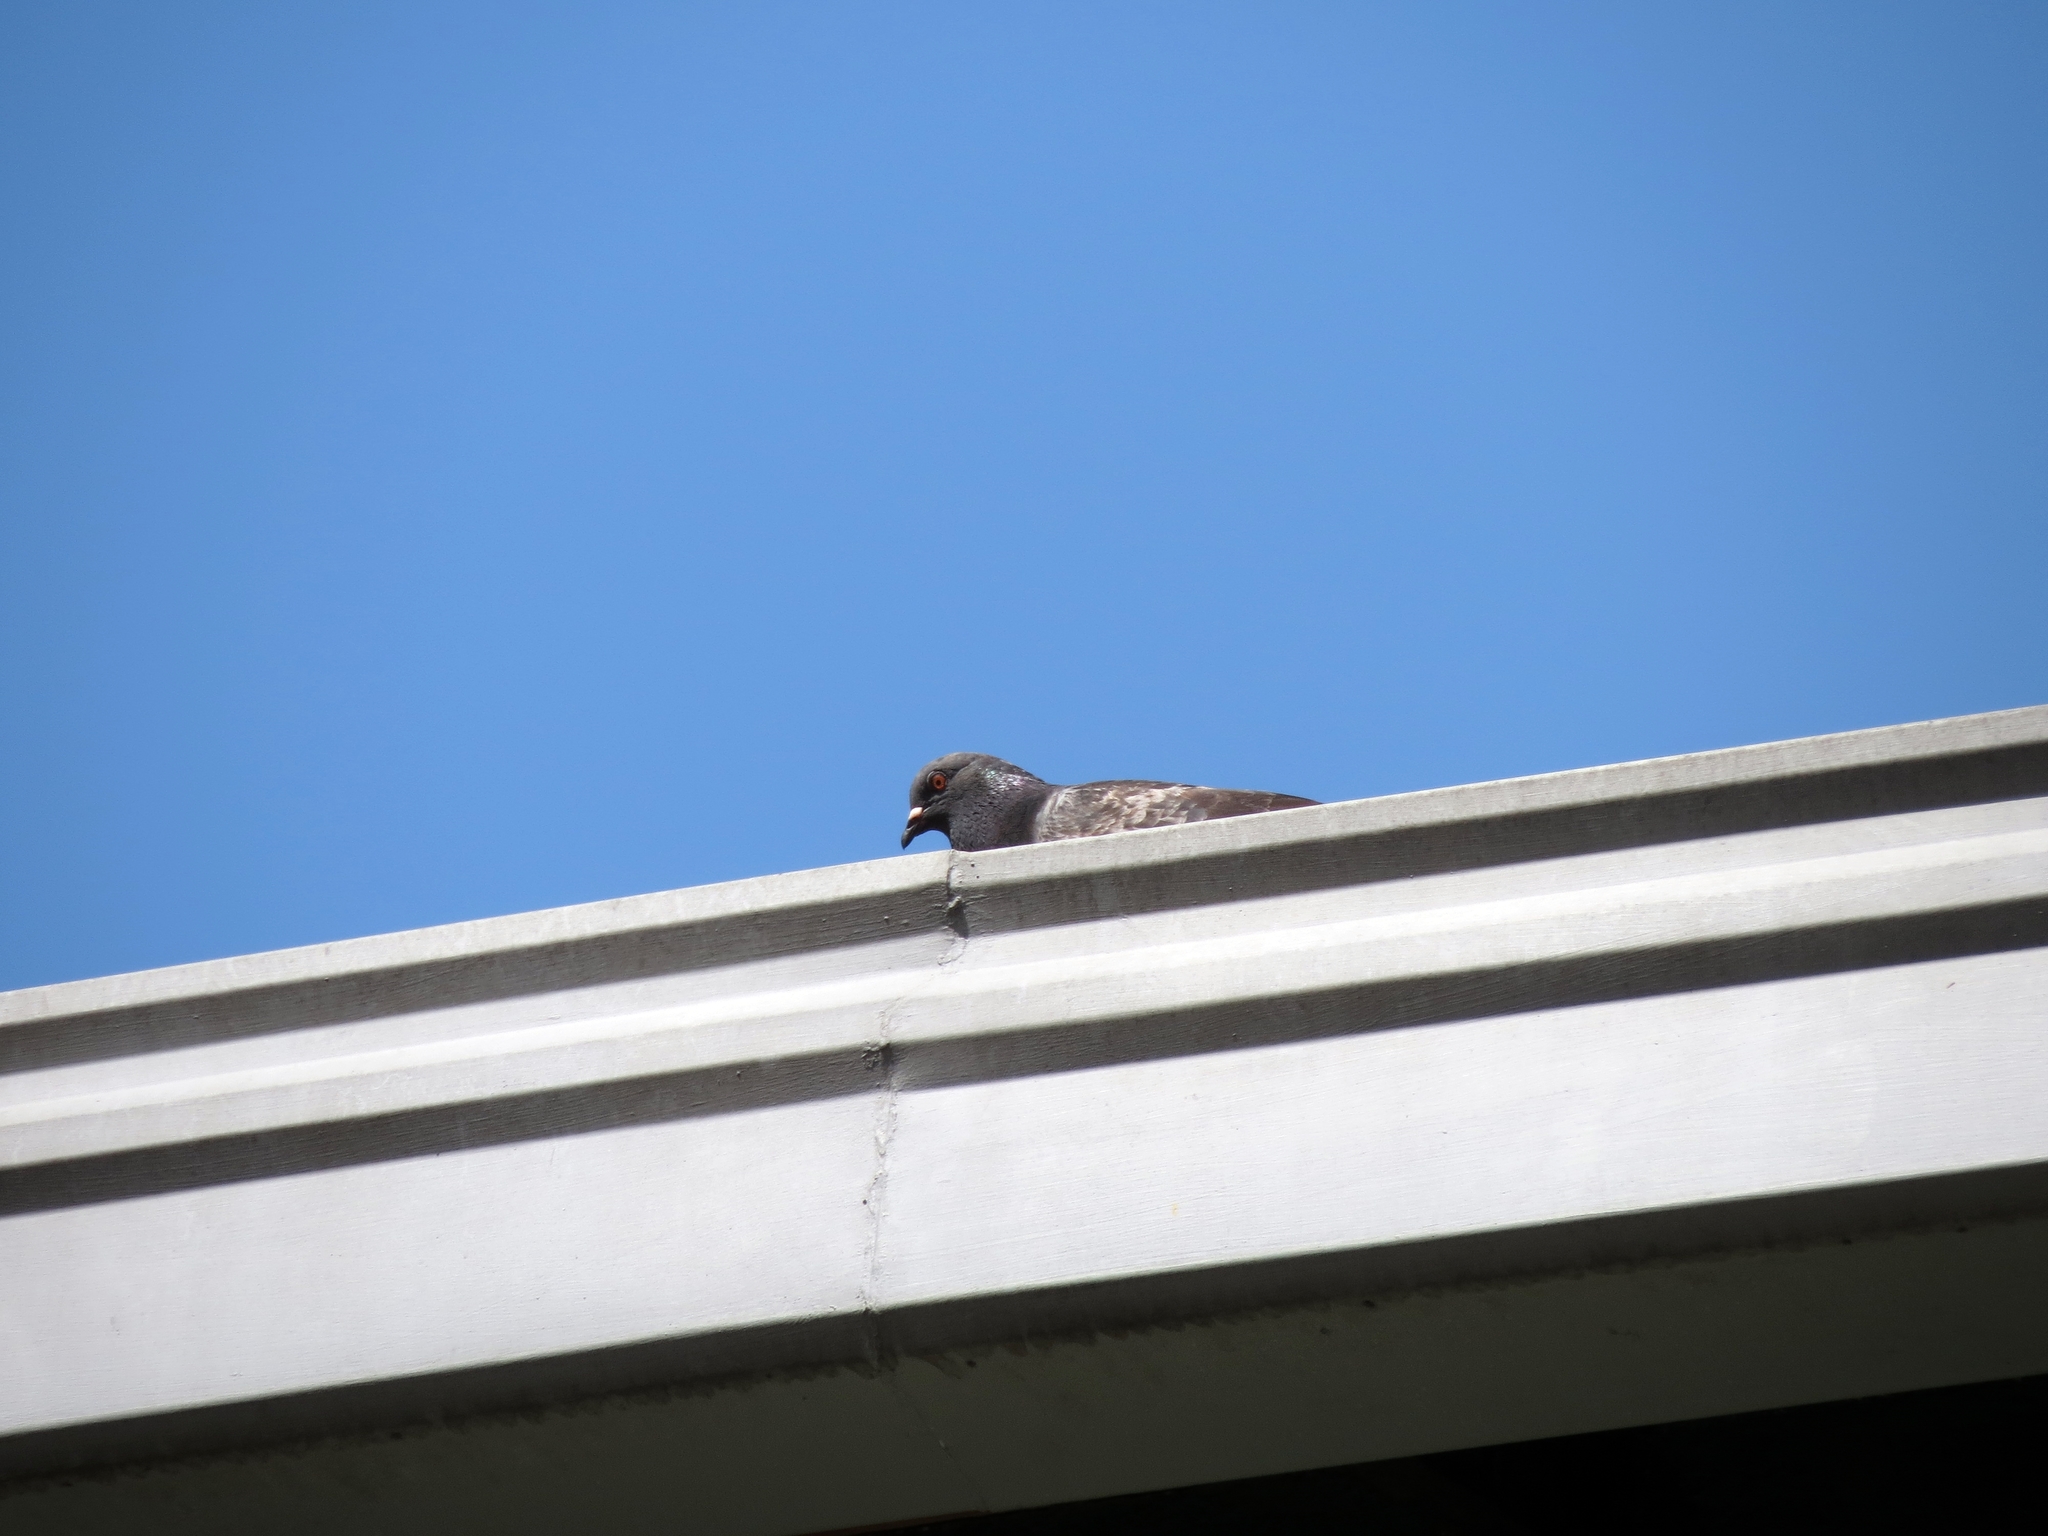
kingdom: Animalia
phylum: Chordata
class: Aves
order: Columbiformes
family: Columbidae
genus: Columba
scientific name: Columba livia
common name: Rock pigeon
